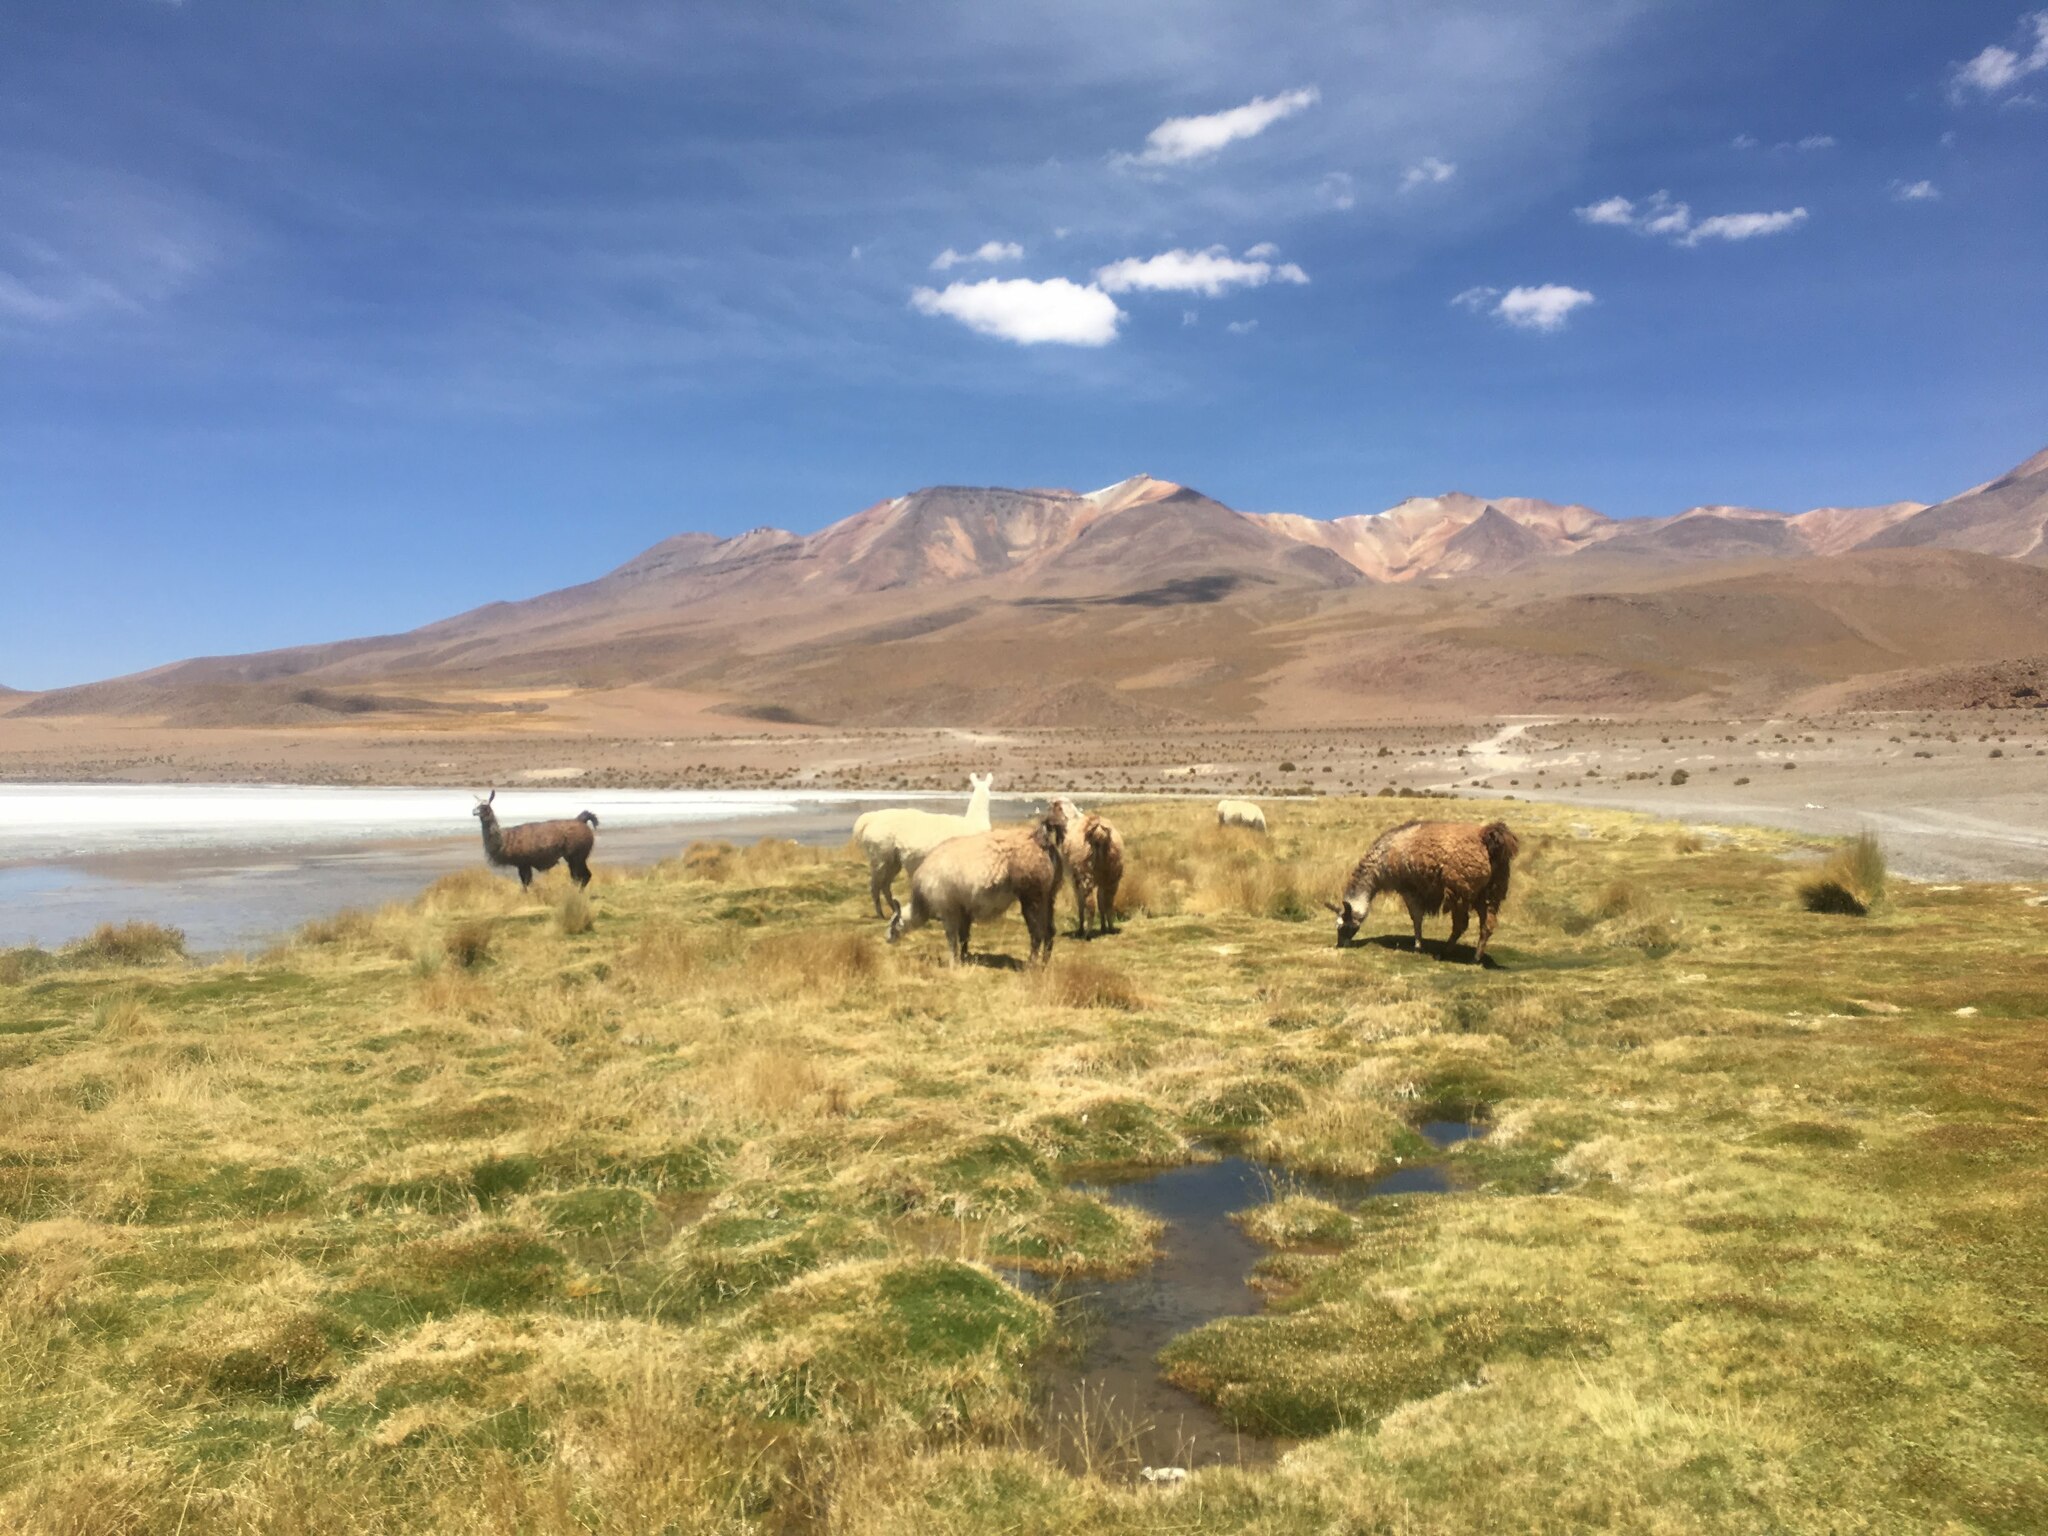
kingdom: Animalia
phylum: Chordata
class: Mammalia
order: Artiodactyla
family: Camelidae
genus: Lama
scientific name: Lama glama
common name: Llama
